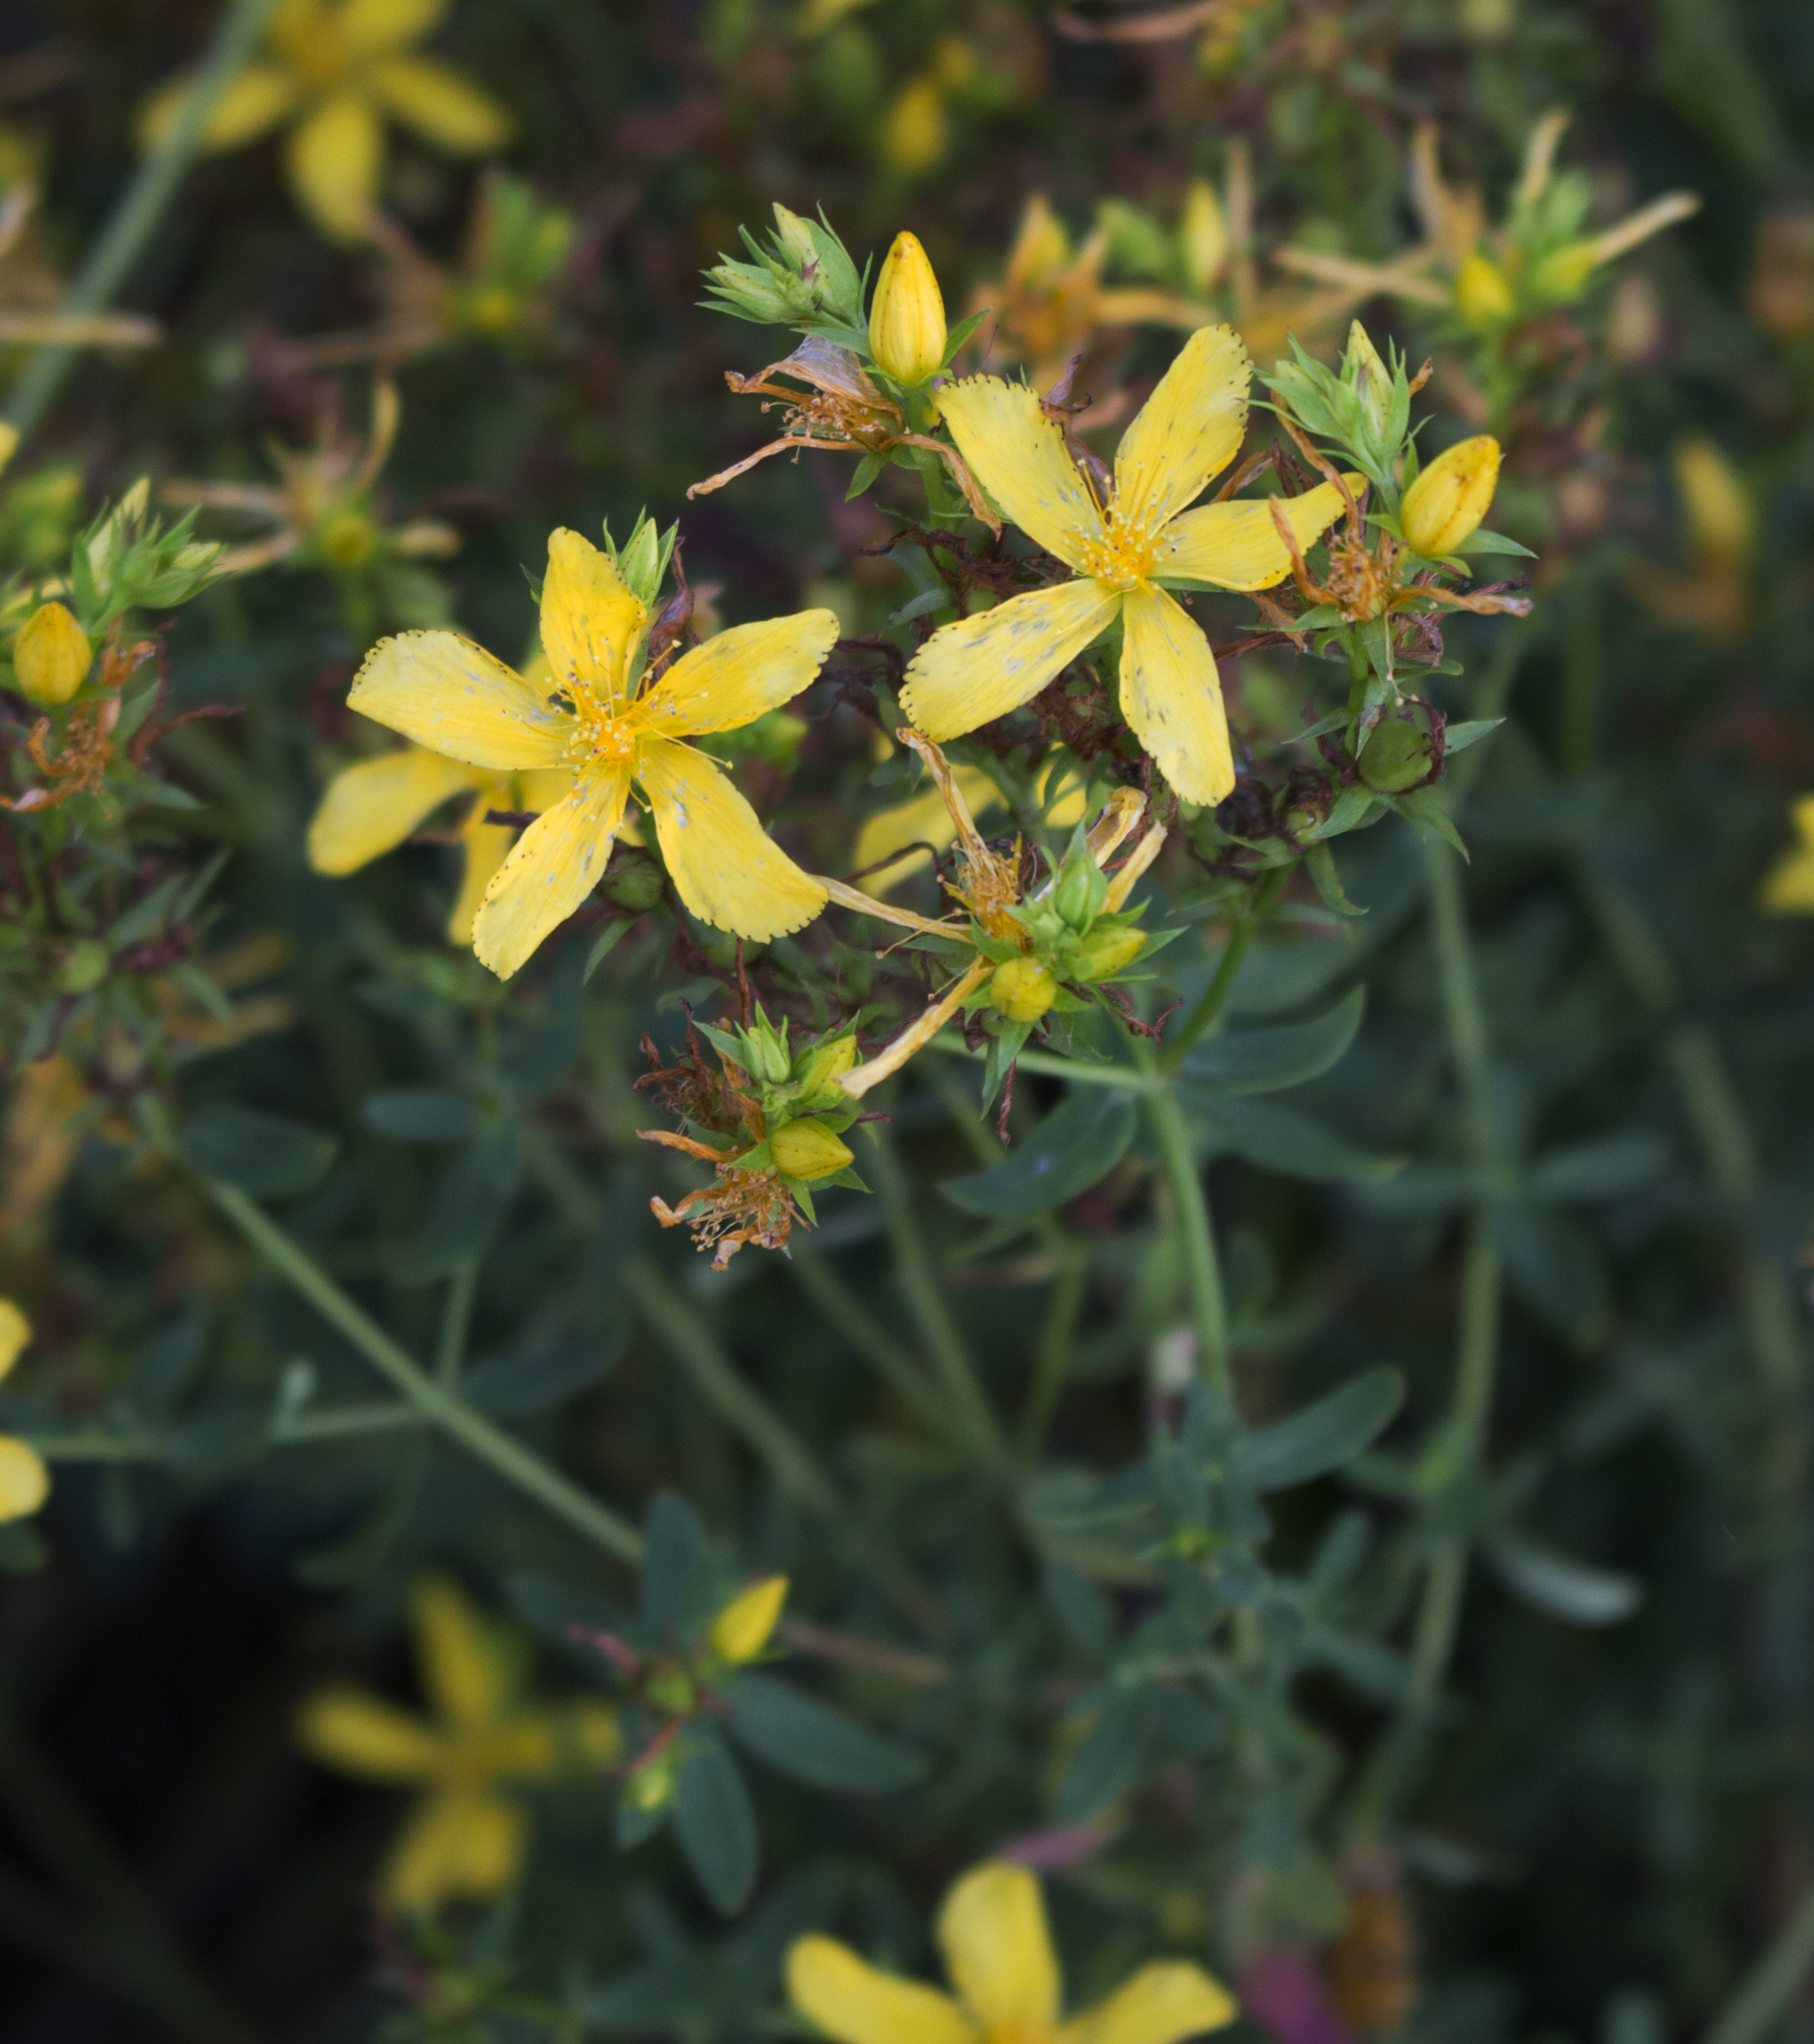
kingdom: Plantae
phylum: Tracheophyta
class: Magnoliopsida
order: Malpighiales
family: Hypericaceae
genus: Hypericum
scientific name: Hypericum perforatum
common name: Common st. johnswort
